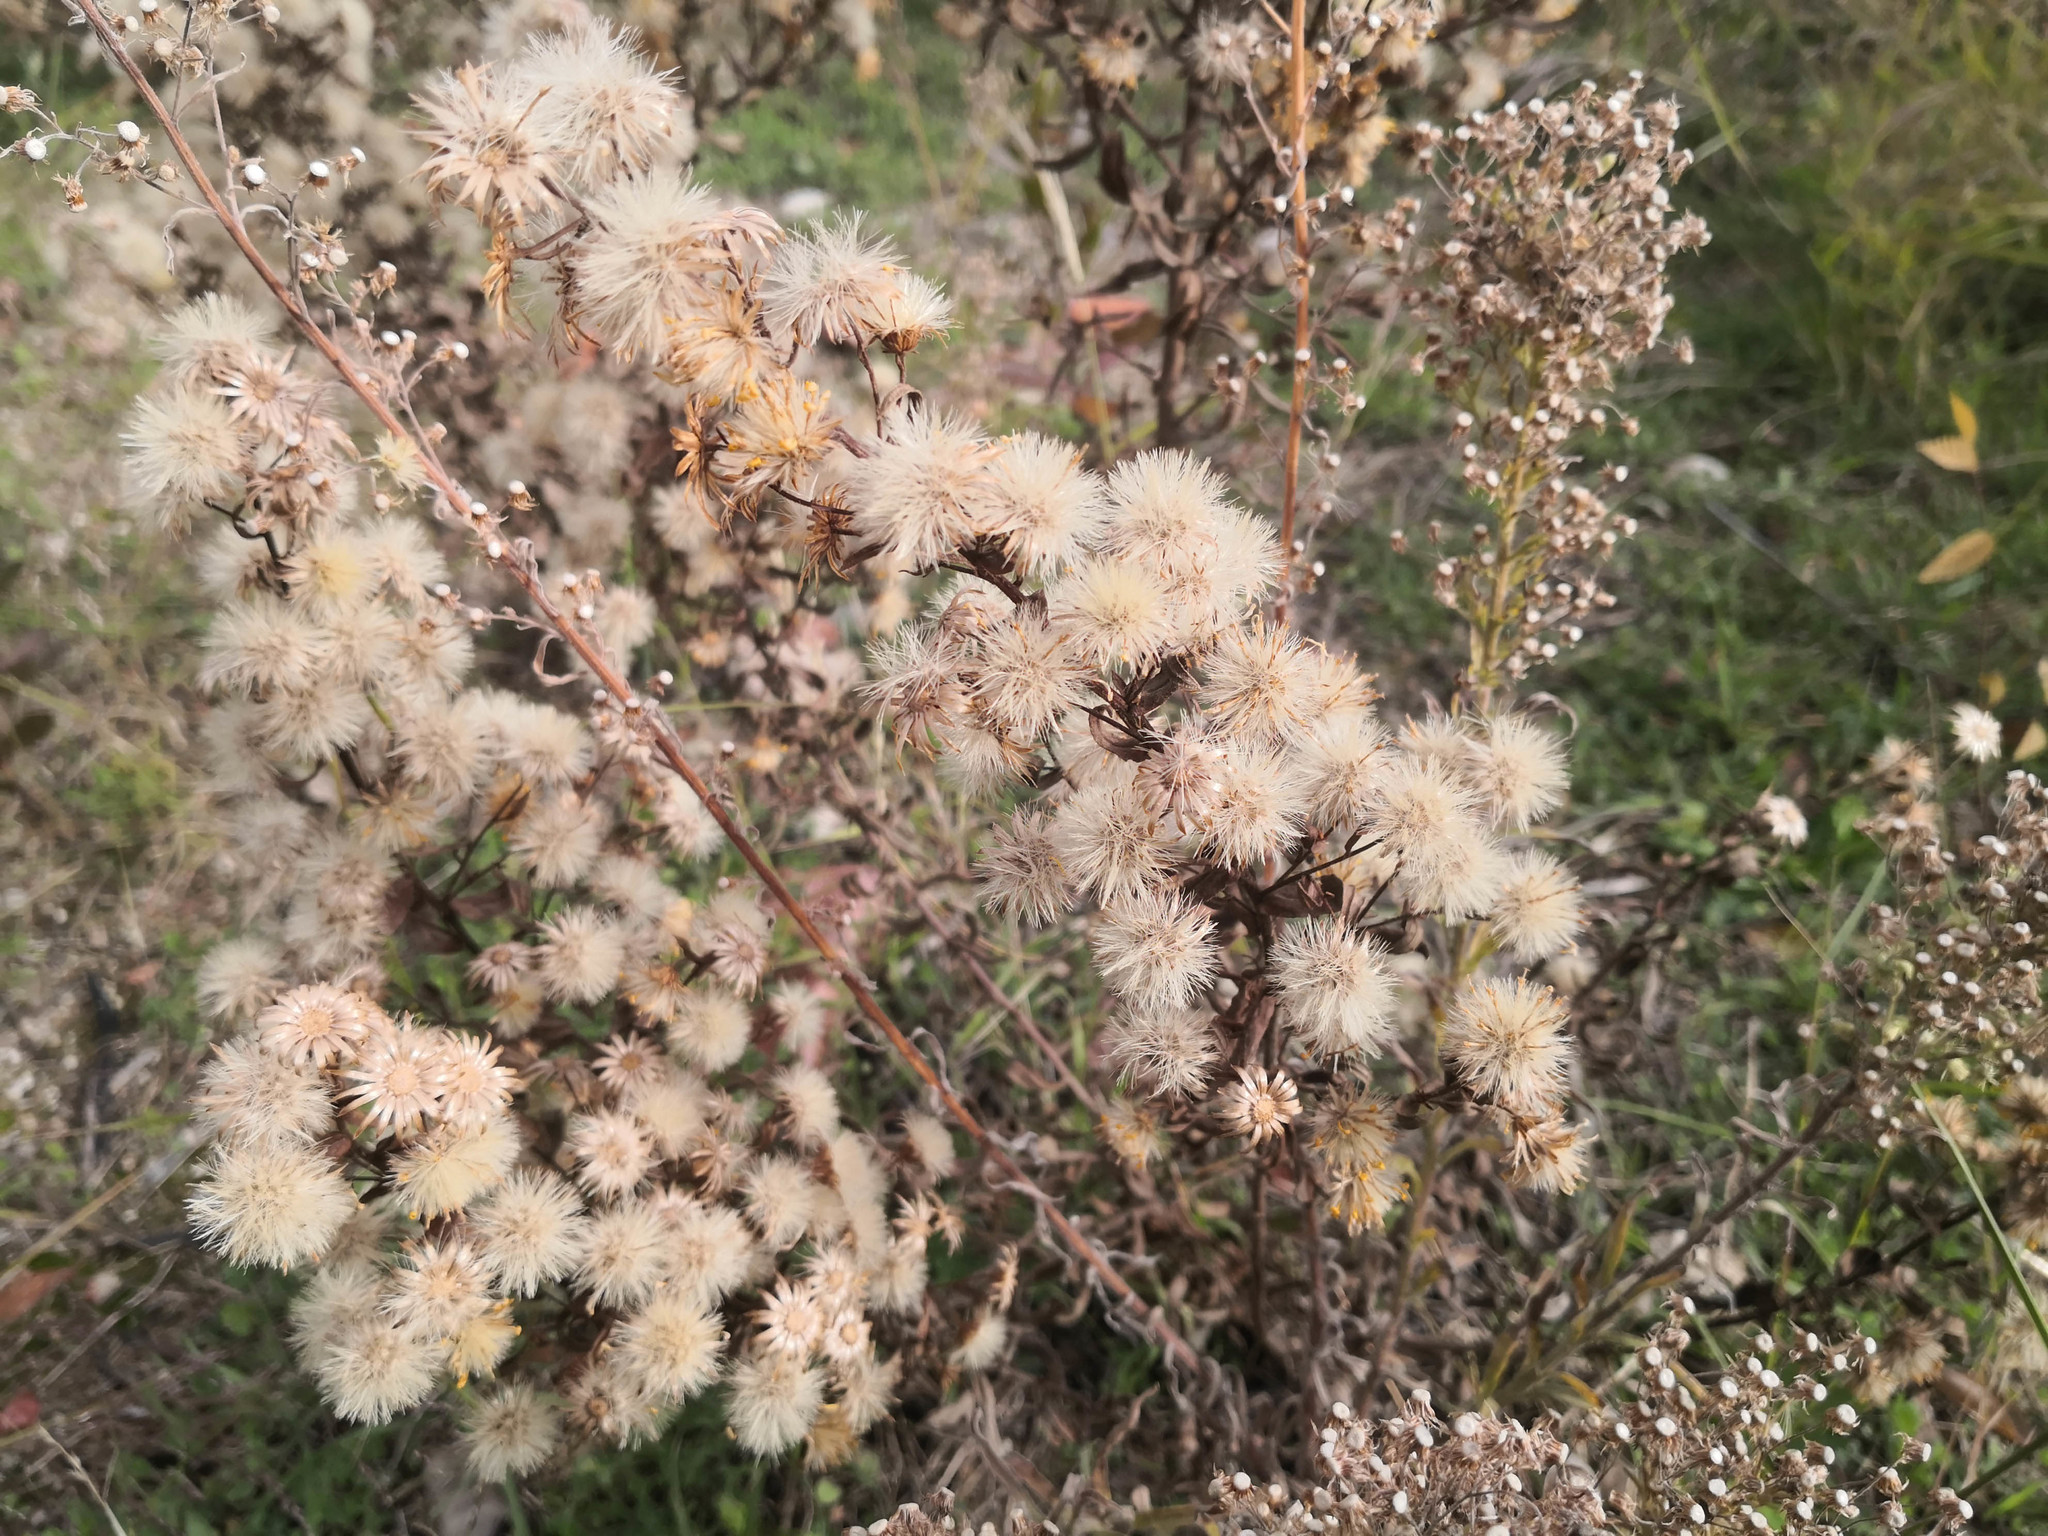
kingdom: Plantae
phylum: Tracheophyta
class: Magnoliopsida
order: Asterales
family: Asteraceae
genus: Dittrichia
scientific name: Dittrichia viscosa
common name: Woody fleabane
